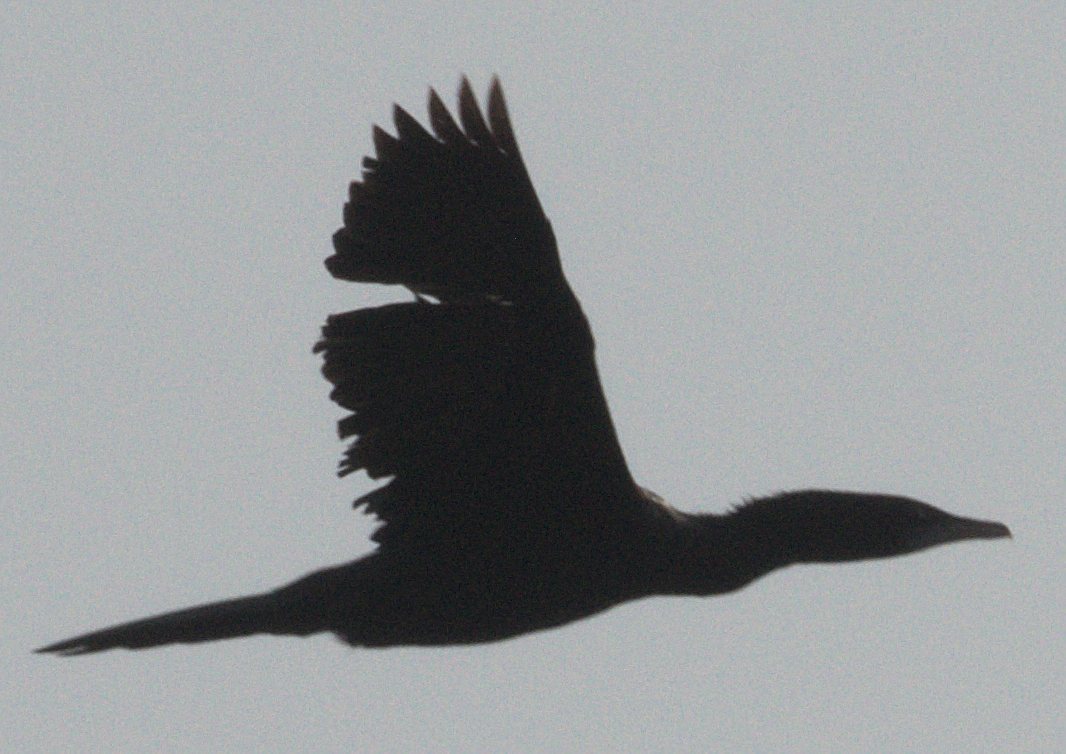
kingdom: Animalia
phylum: Chordata
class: Aves
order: Suliformes
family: Phalacrocoracidae
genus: Microcarbo
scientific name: Microcarbo niger
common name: Little cormorant
